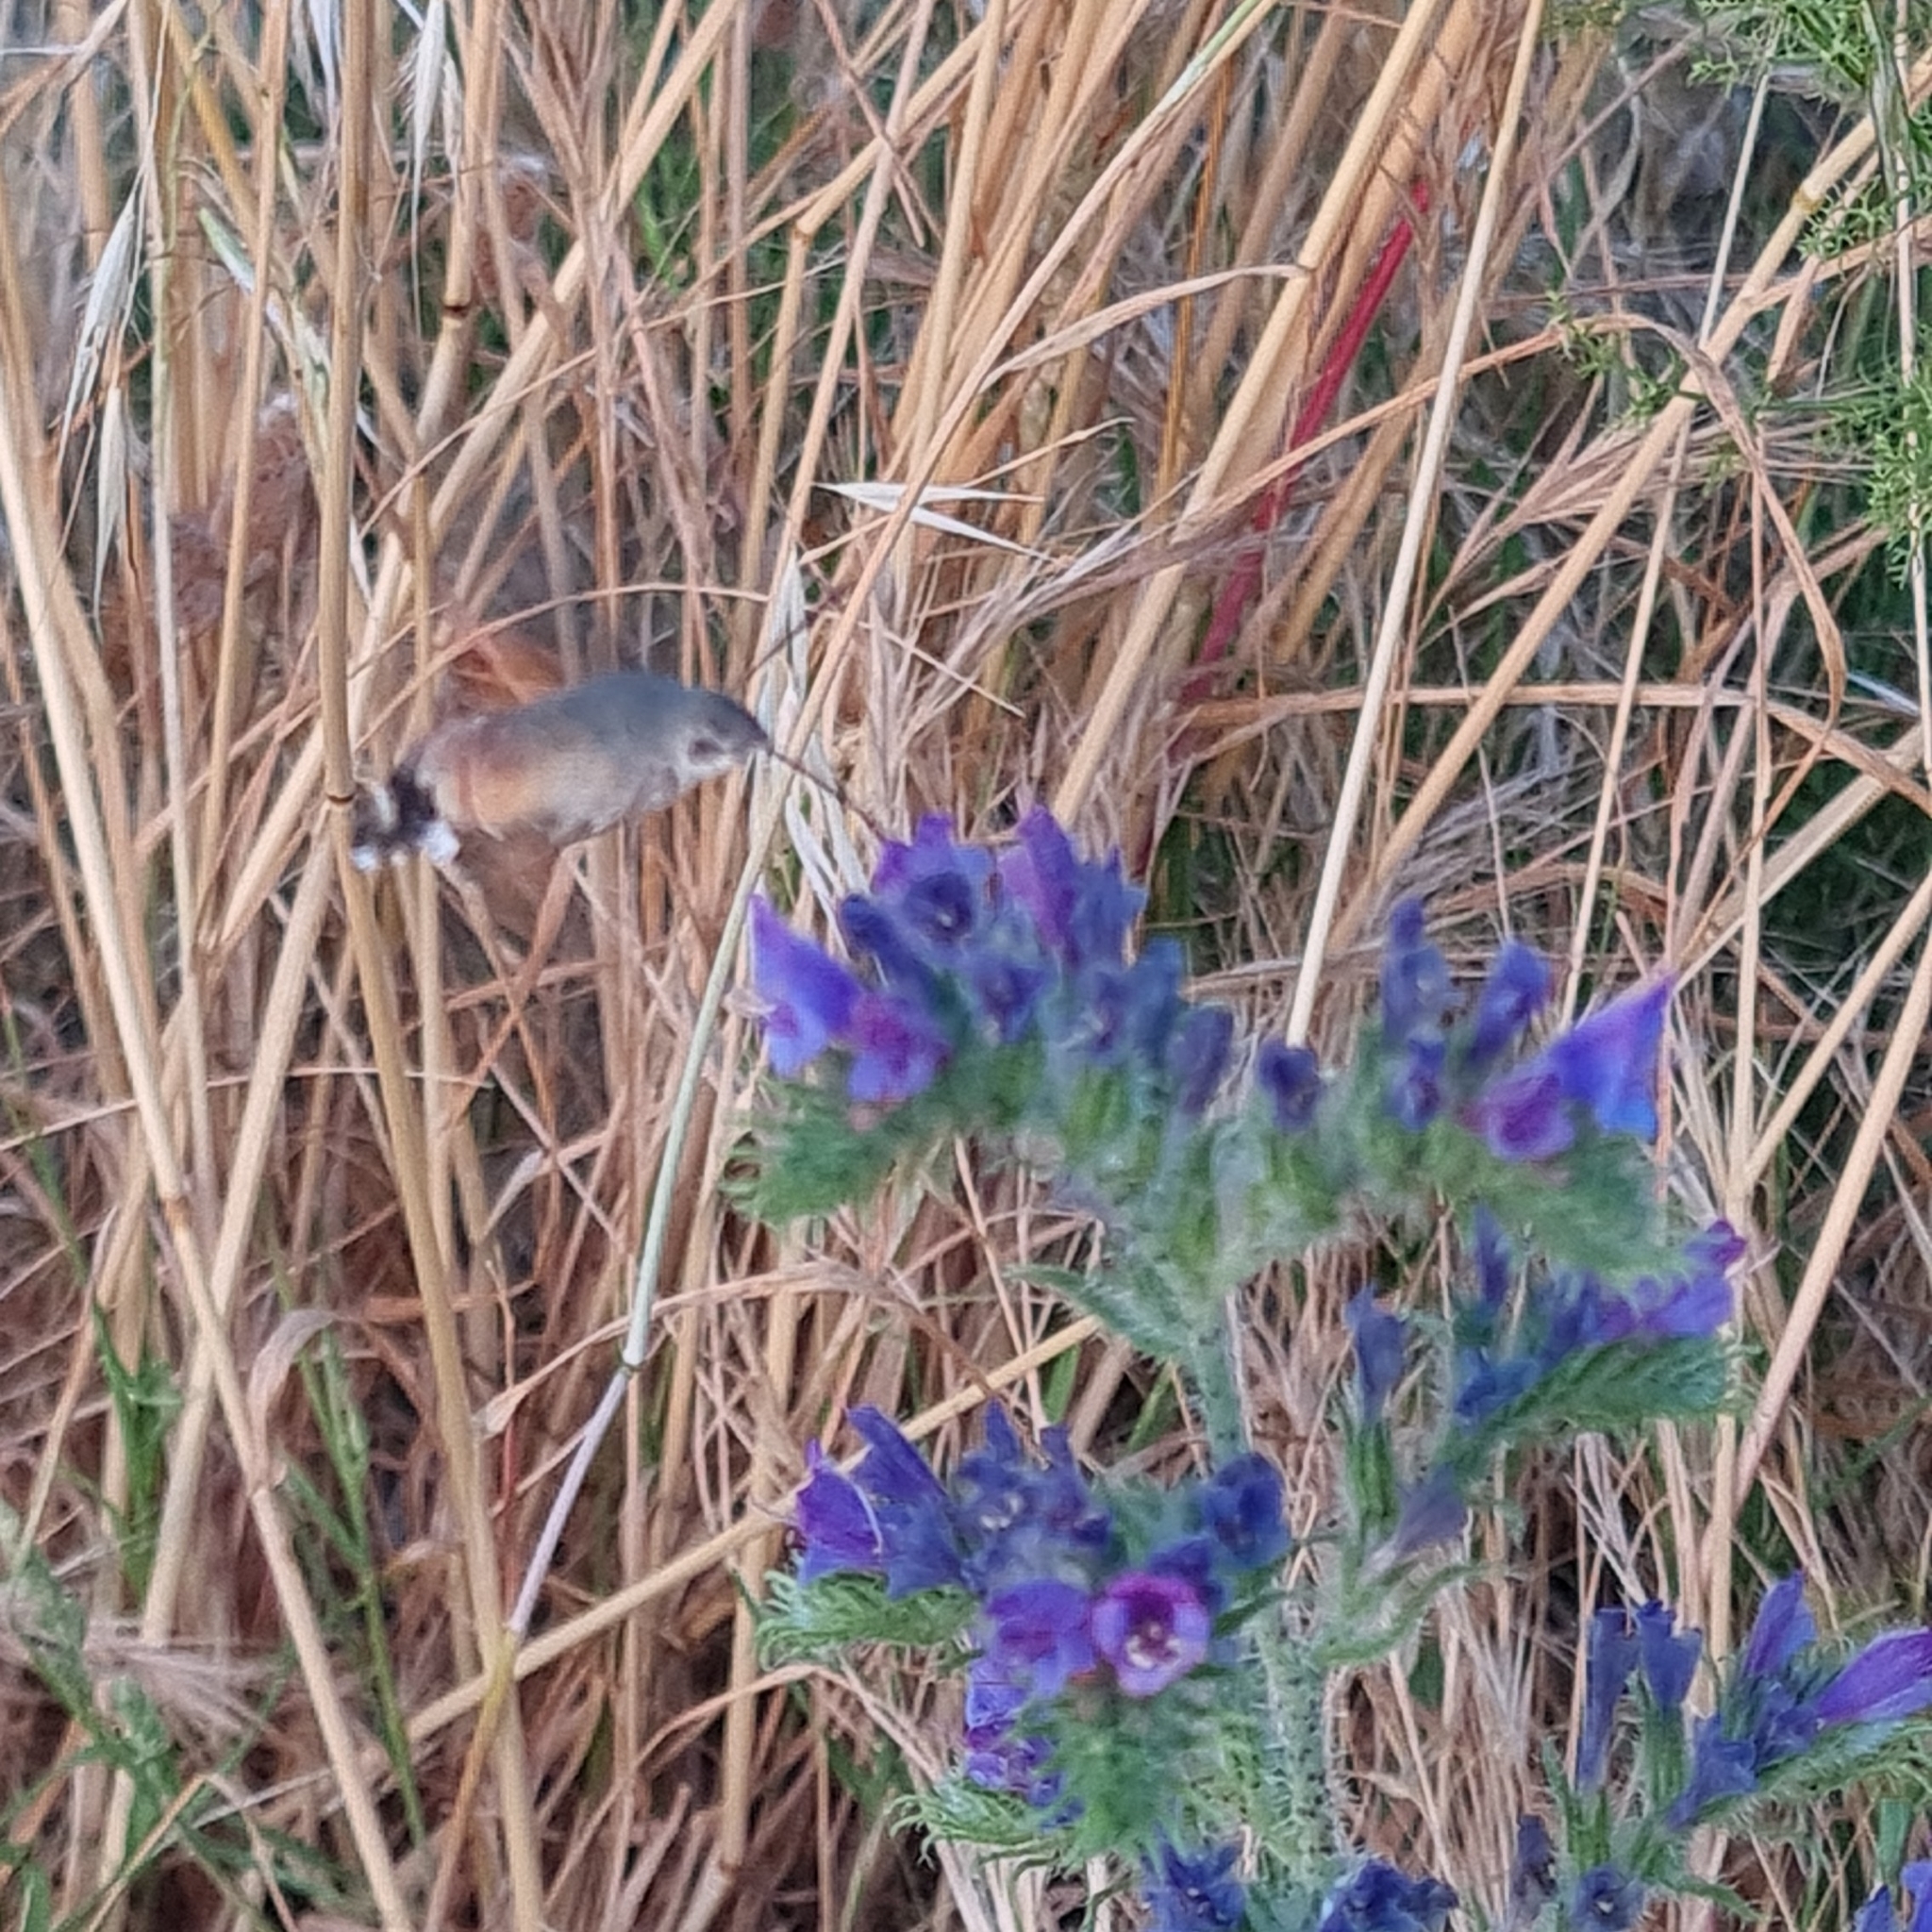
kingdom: Animalia
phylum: Arthropoda
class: Insecta
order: Lepidoptera
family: Sphingidae
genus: Macroglossum
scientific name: Macroglossum stellatarum
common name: Humming-bird hawk-moth
